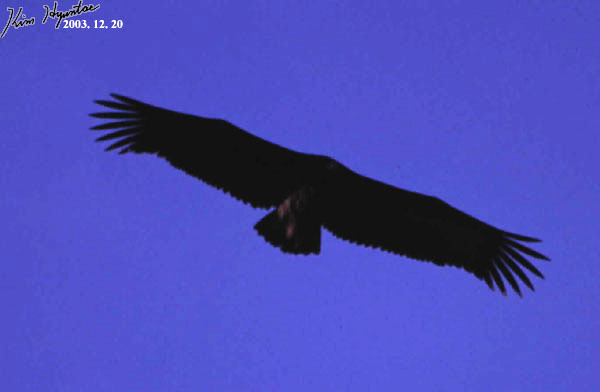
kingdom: Animalia
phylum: Chordata
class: Aves
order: Accipitriformes
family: Accipitridae
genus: Aegypius
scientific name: Aegypius monachus
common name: Cinereous vulture
